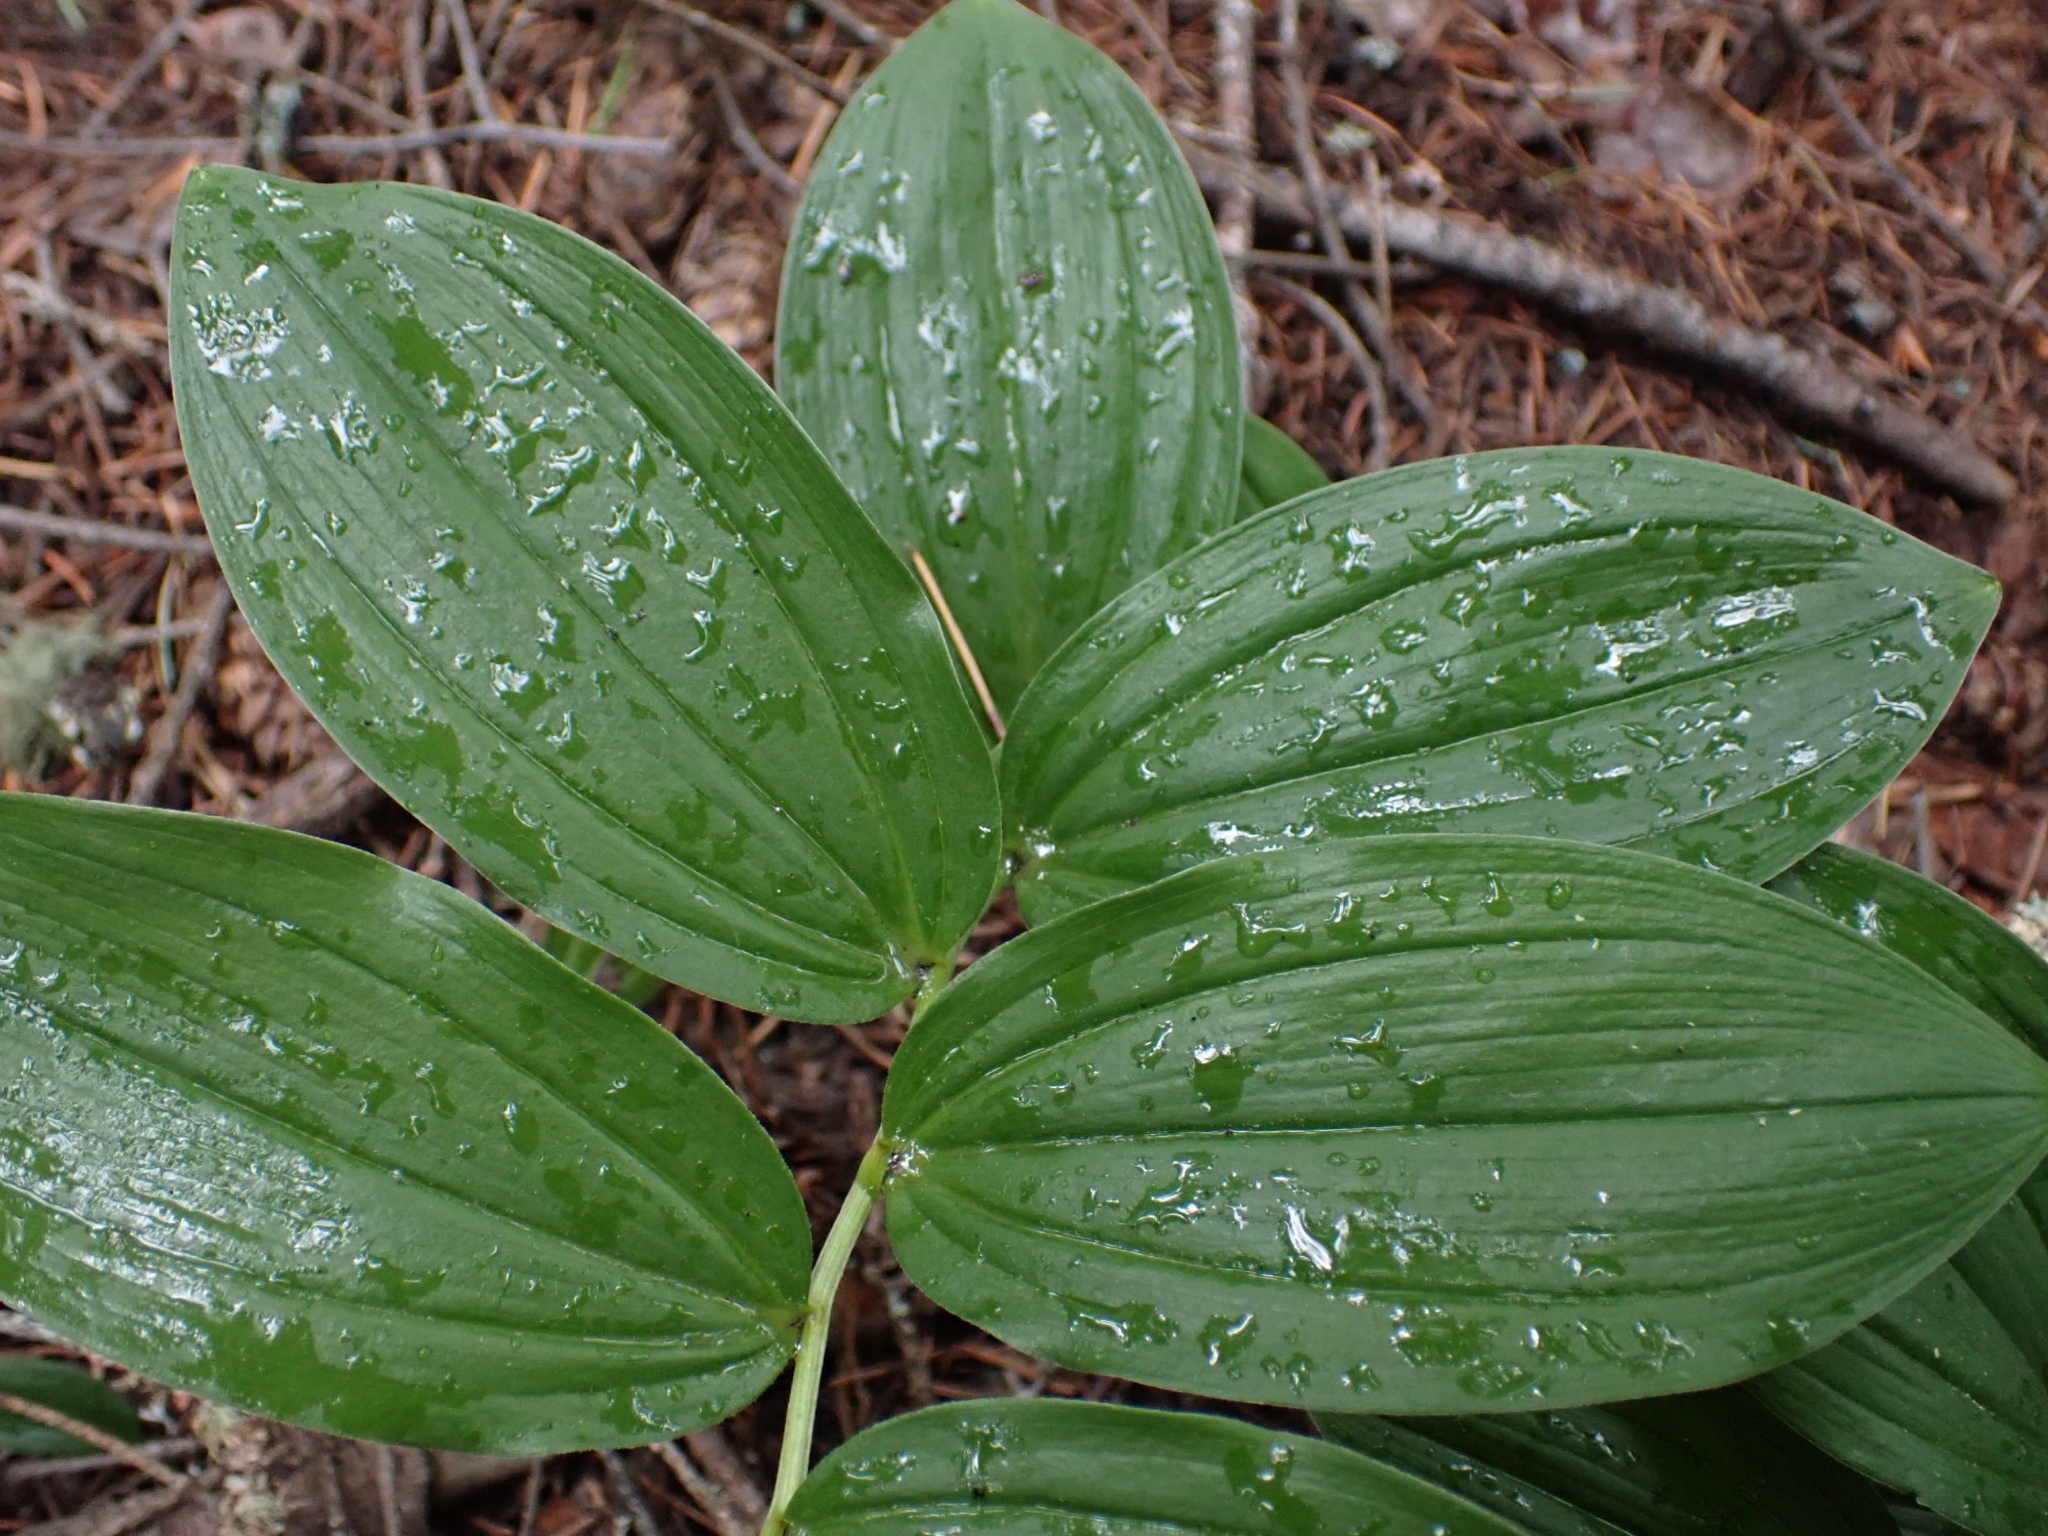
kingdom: Plantae
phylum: Tracheophyta
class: Liliopsida
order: Asparagales
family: Asparagaceae
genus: Maianthemum
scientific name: Maianthemum racemosum
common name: False spikenard
